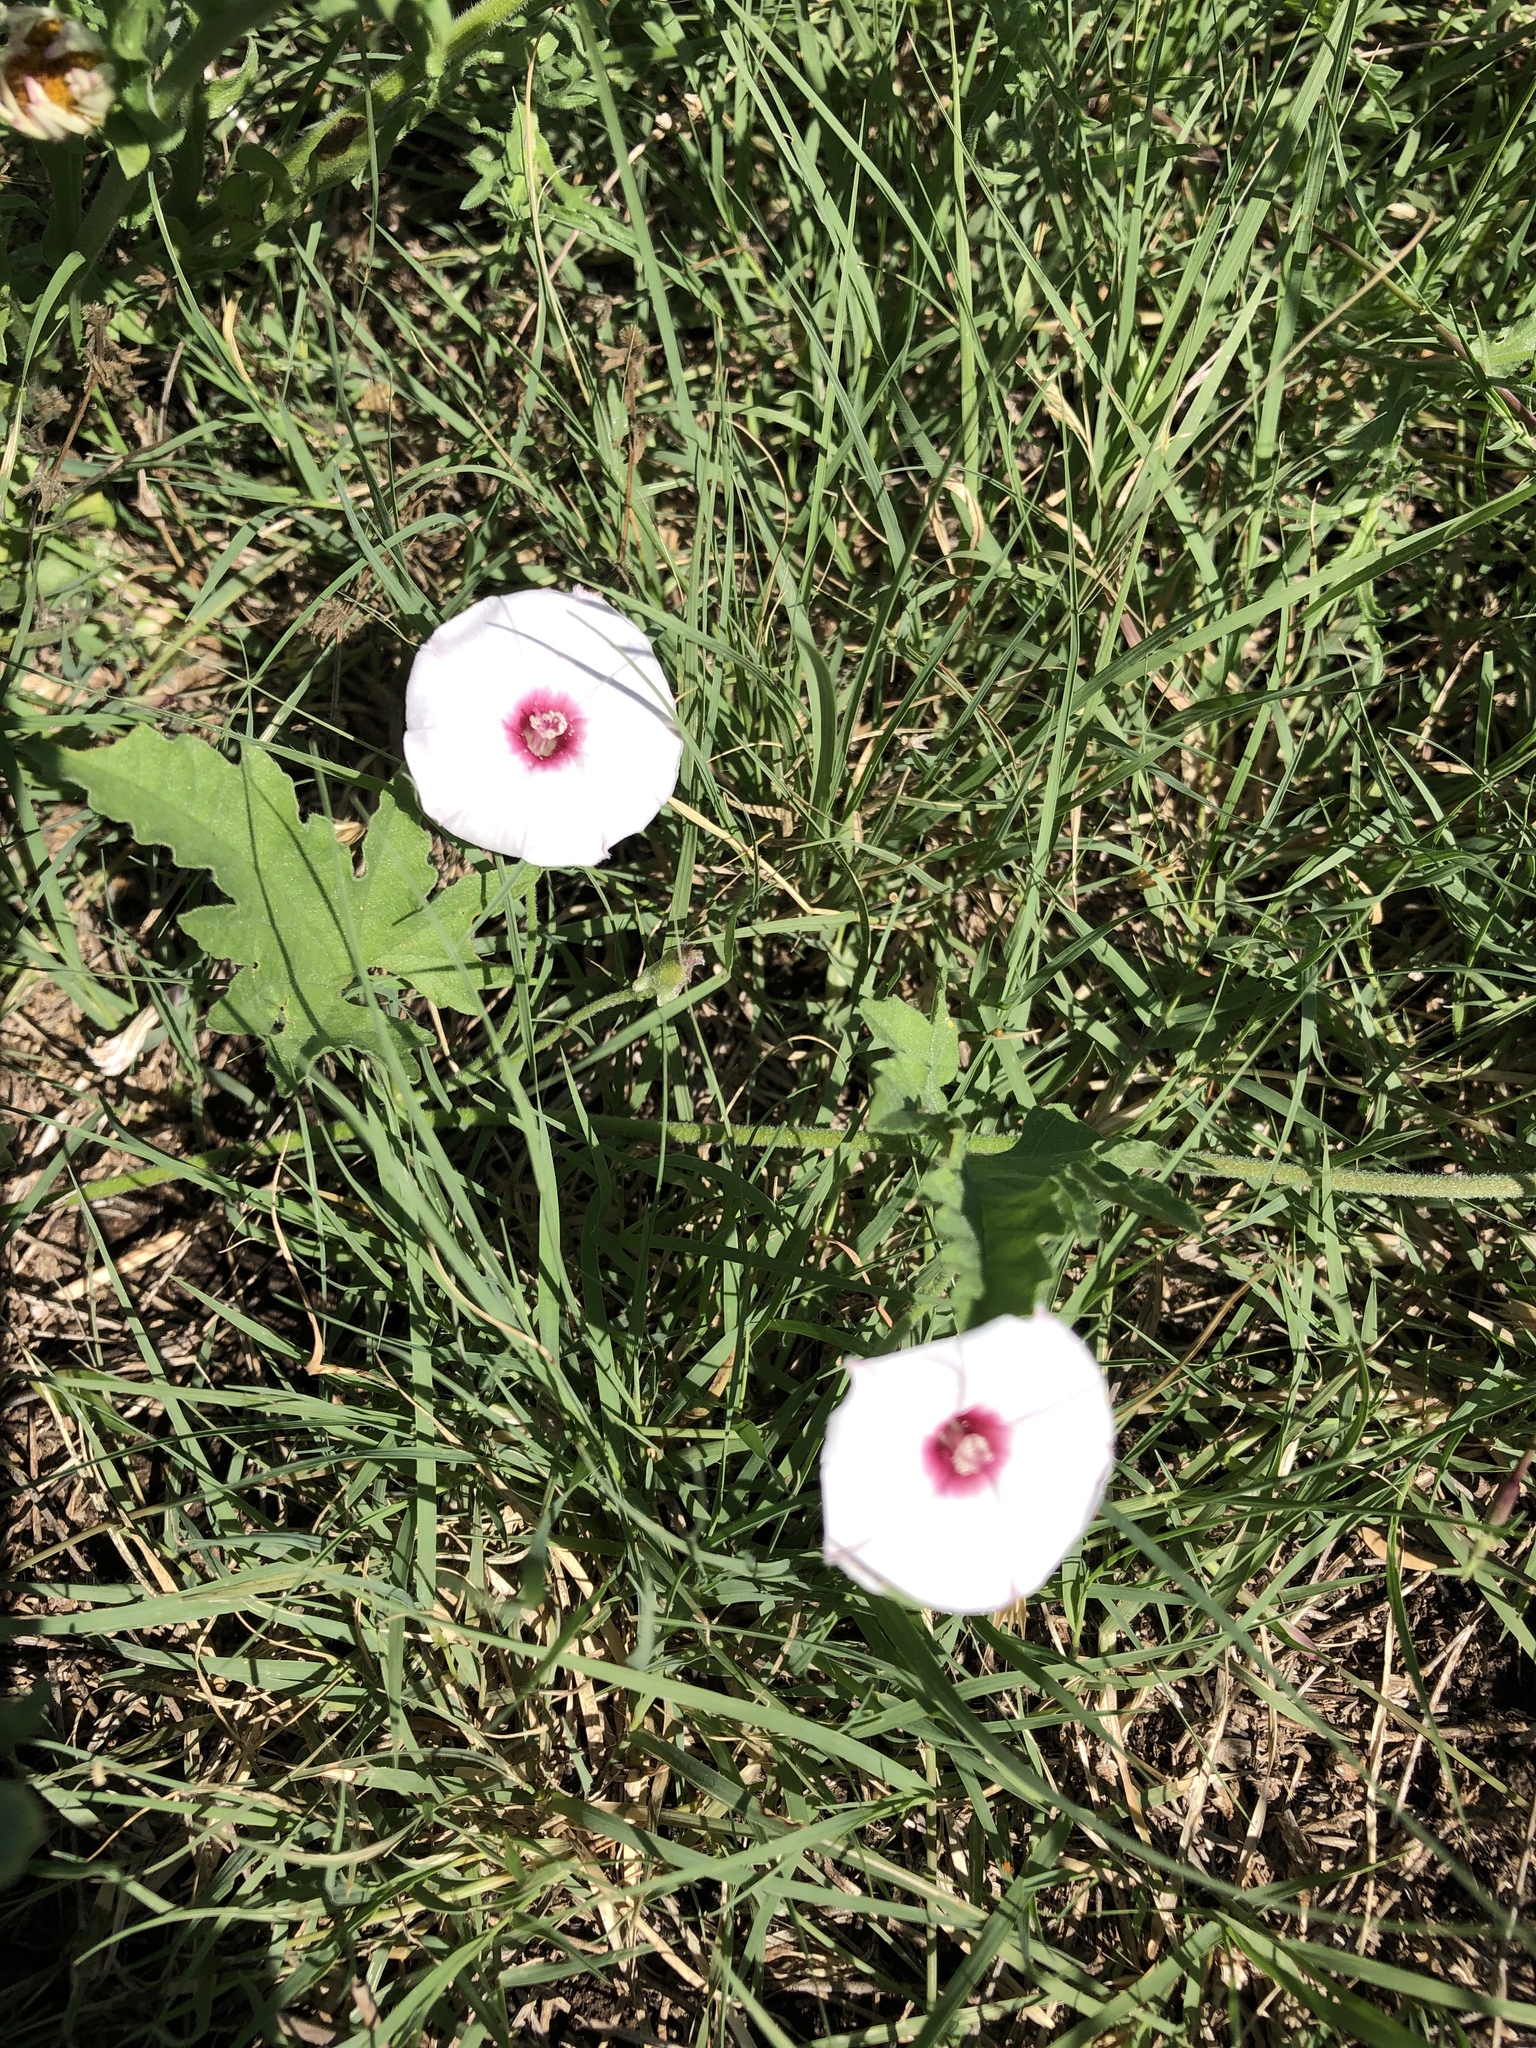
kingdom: Plantae
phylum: Tracheophyta
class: Magnoliopsida
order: Solanales
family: Convolvulaceae
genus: Convolvulus
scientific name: Convolvulus equitans
